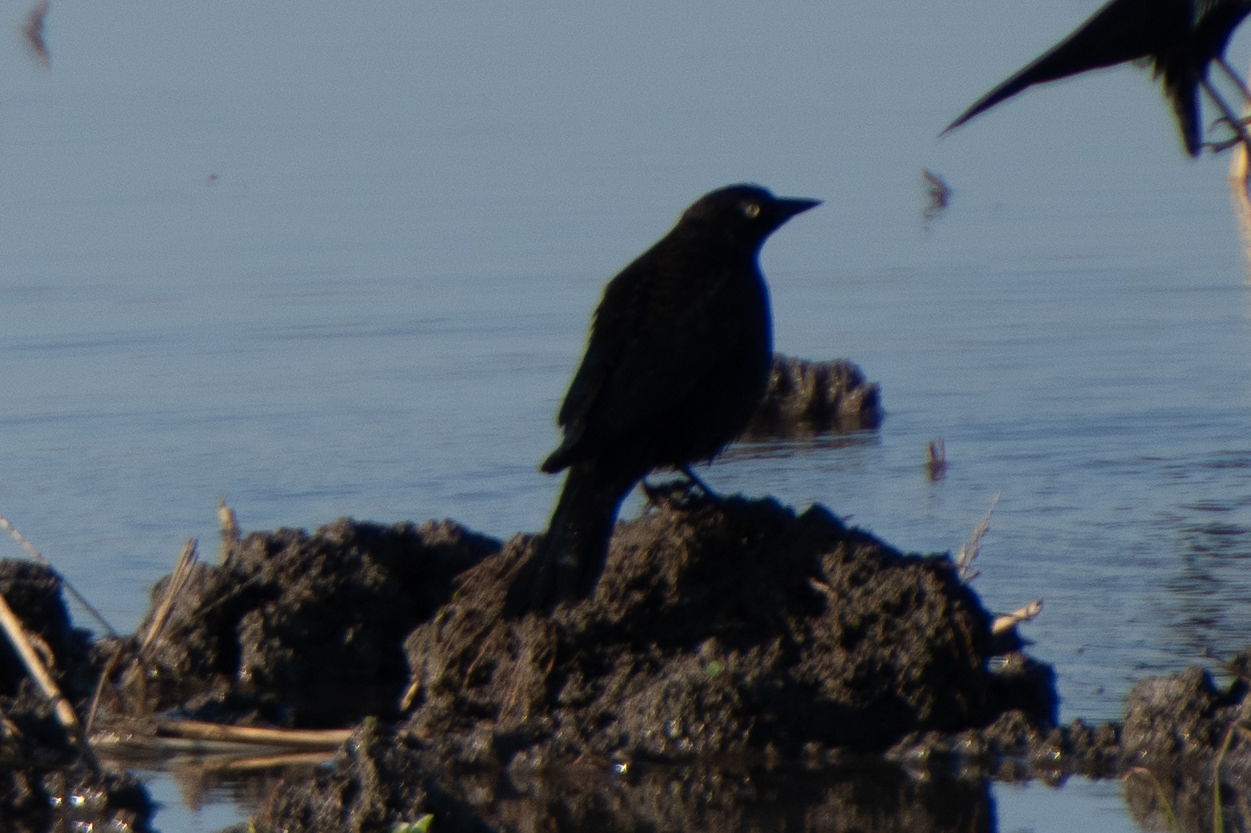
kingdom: Animalia
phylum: Chordata
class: Aves
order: Passeriformes
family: Icteridae
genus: Euphagus
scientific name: Euphagus cyanocephalus
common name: Brewer's blackbird
